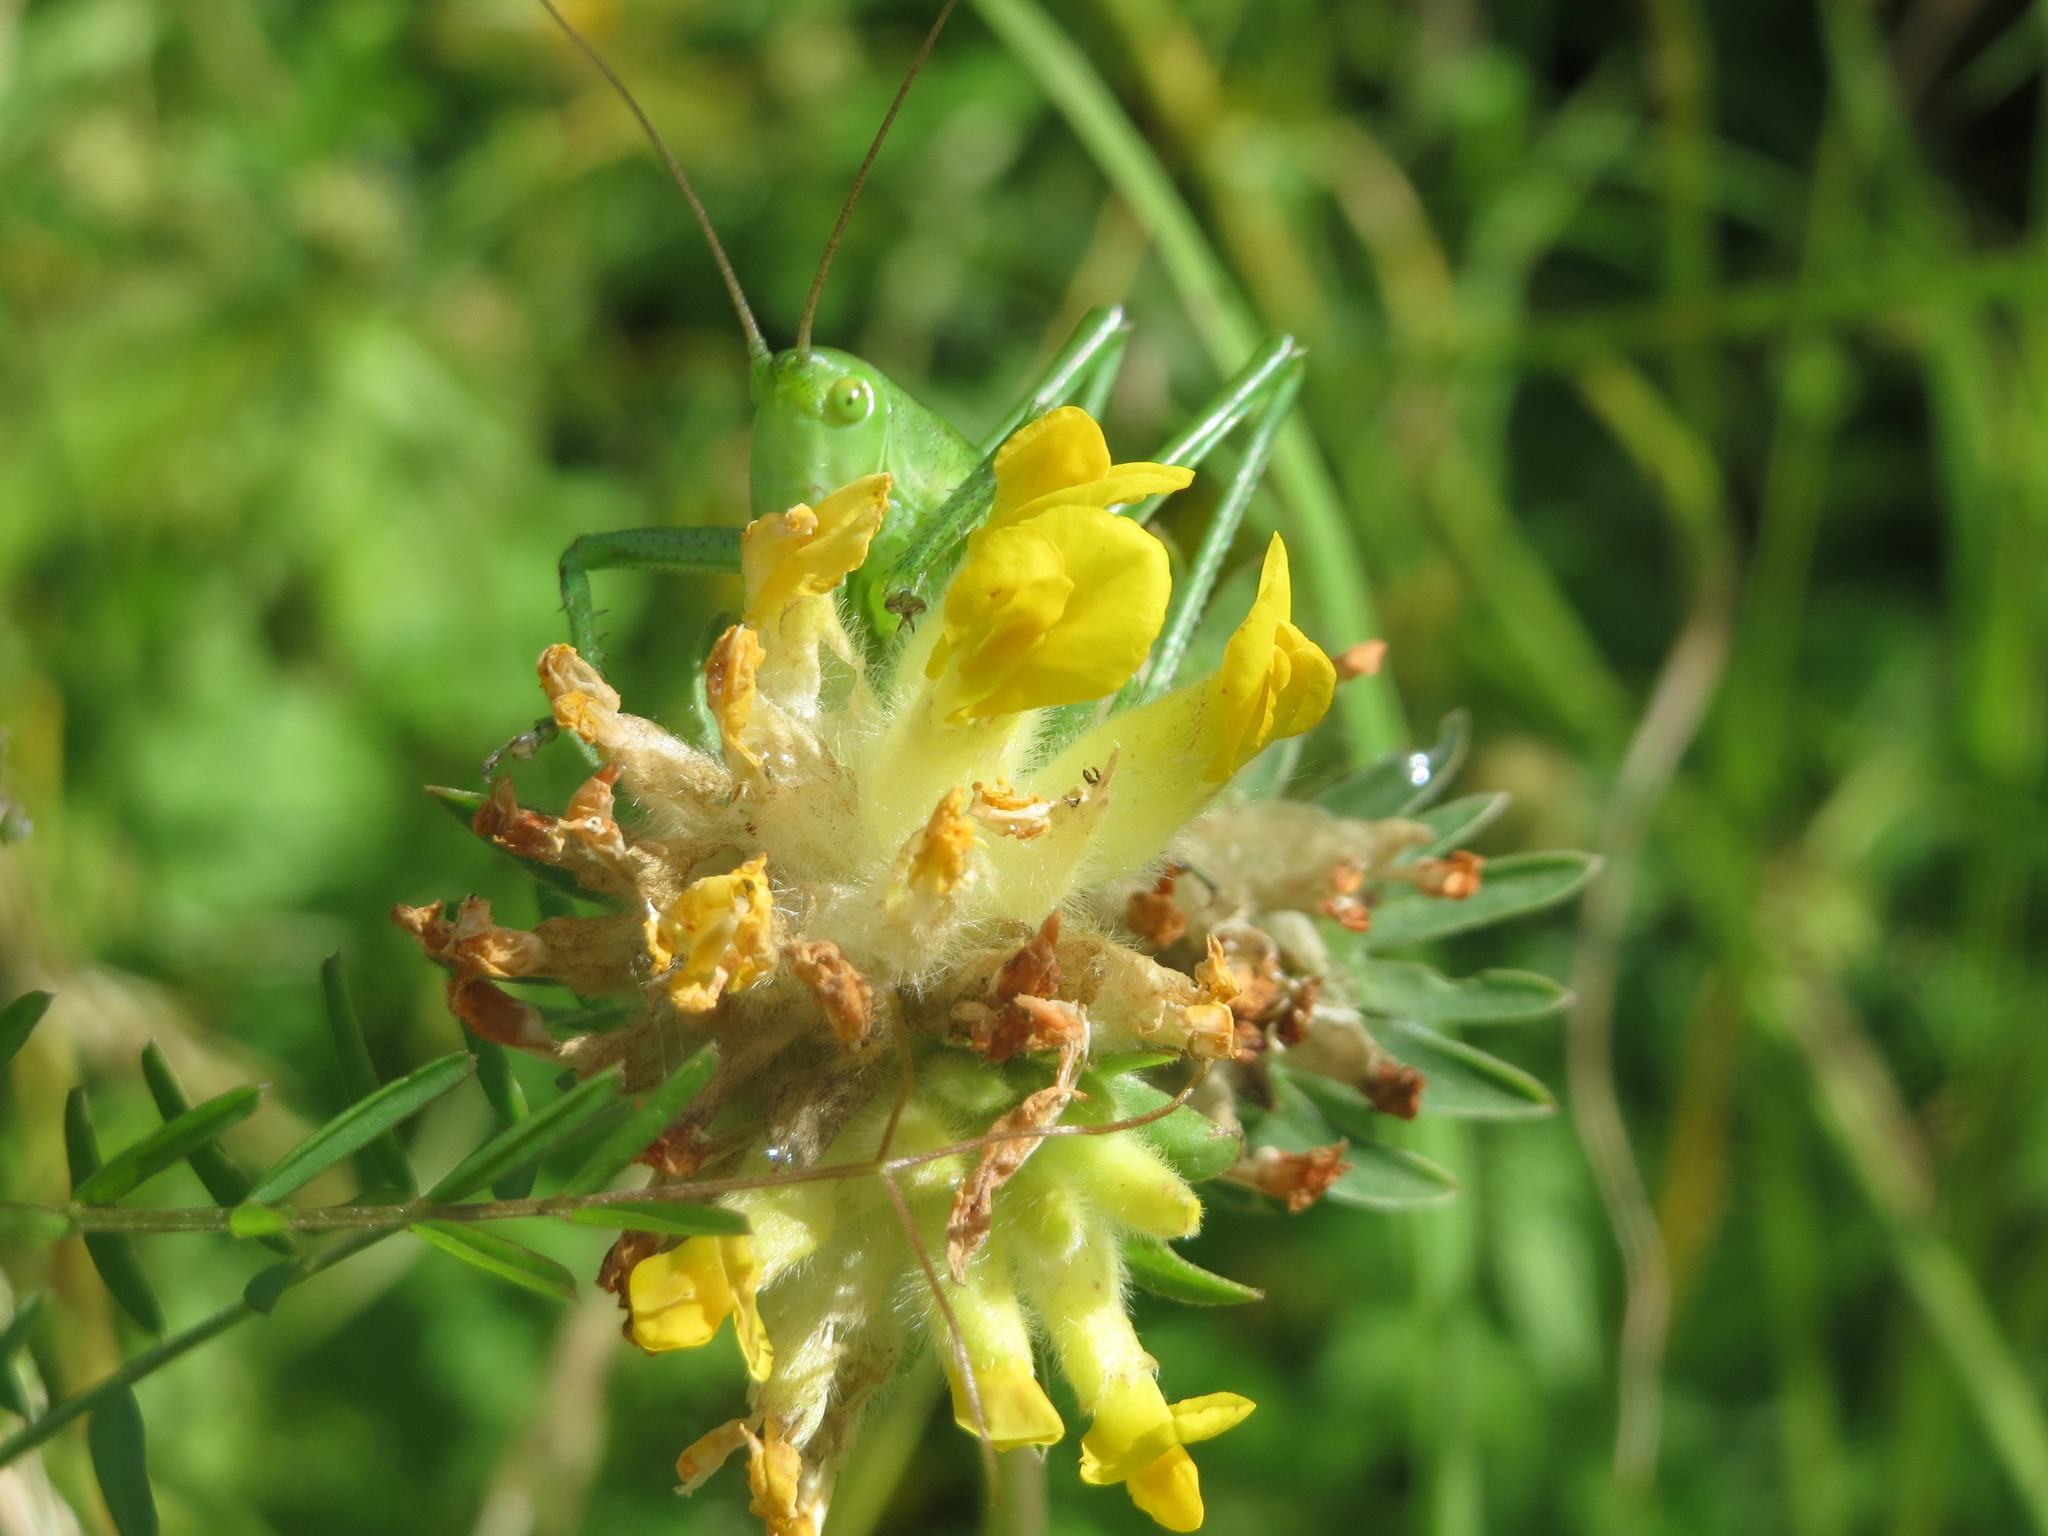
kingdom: Plantae
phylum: Tracheophyta
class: Magnoliopsida
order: Fabales
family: Fabaceae
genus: Anthyllis
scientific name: Anthyllis vulneraria
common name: Kidney vetch
